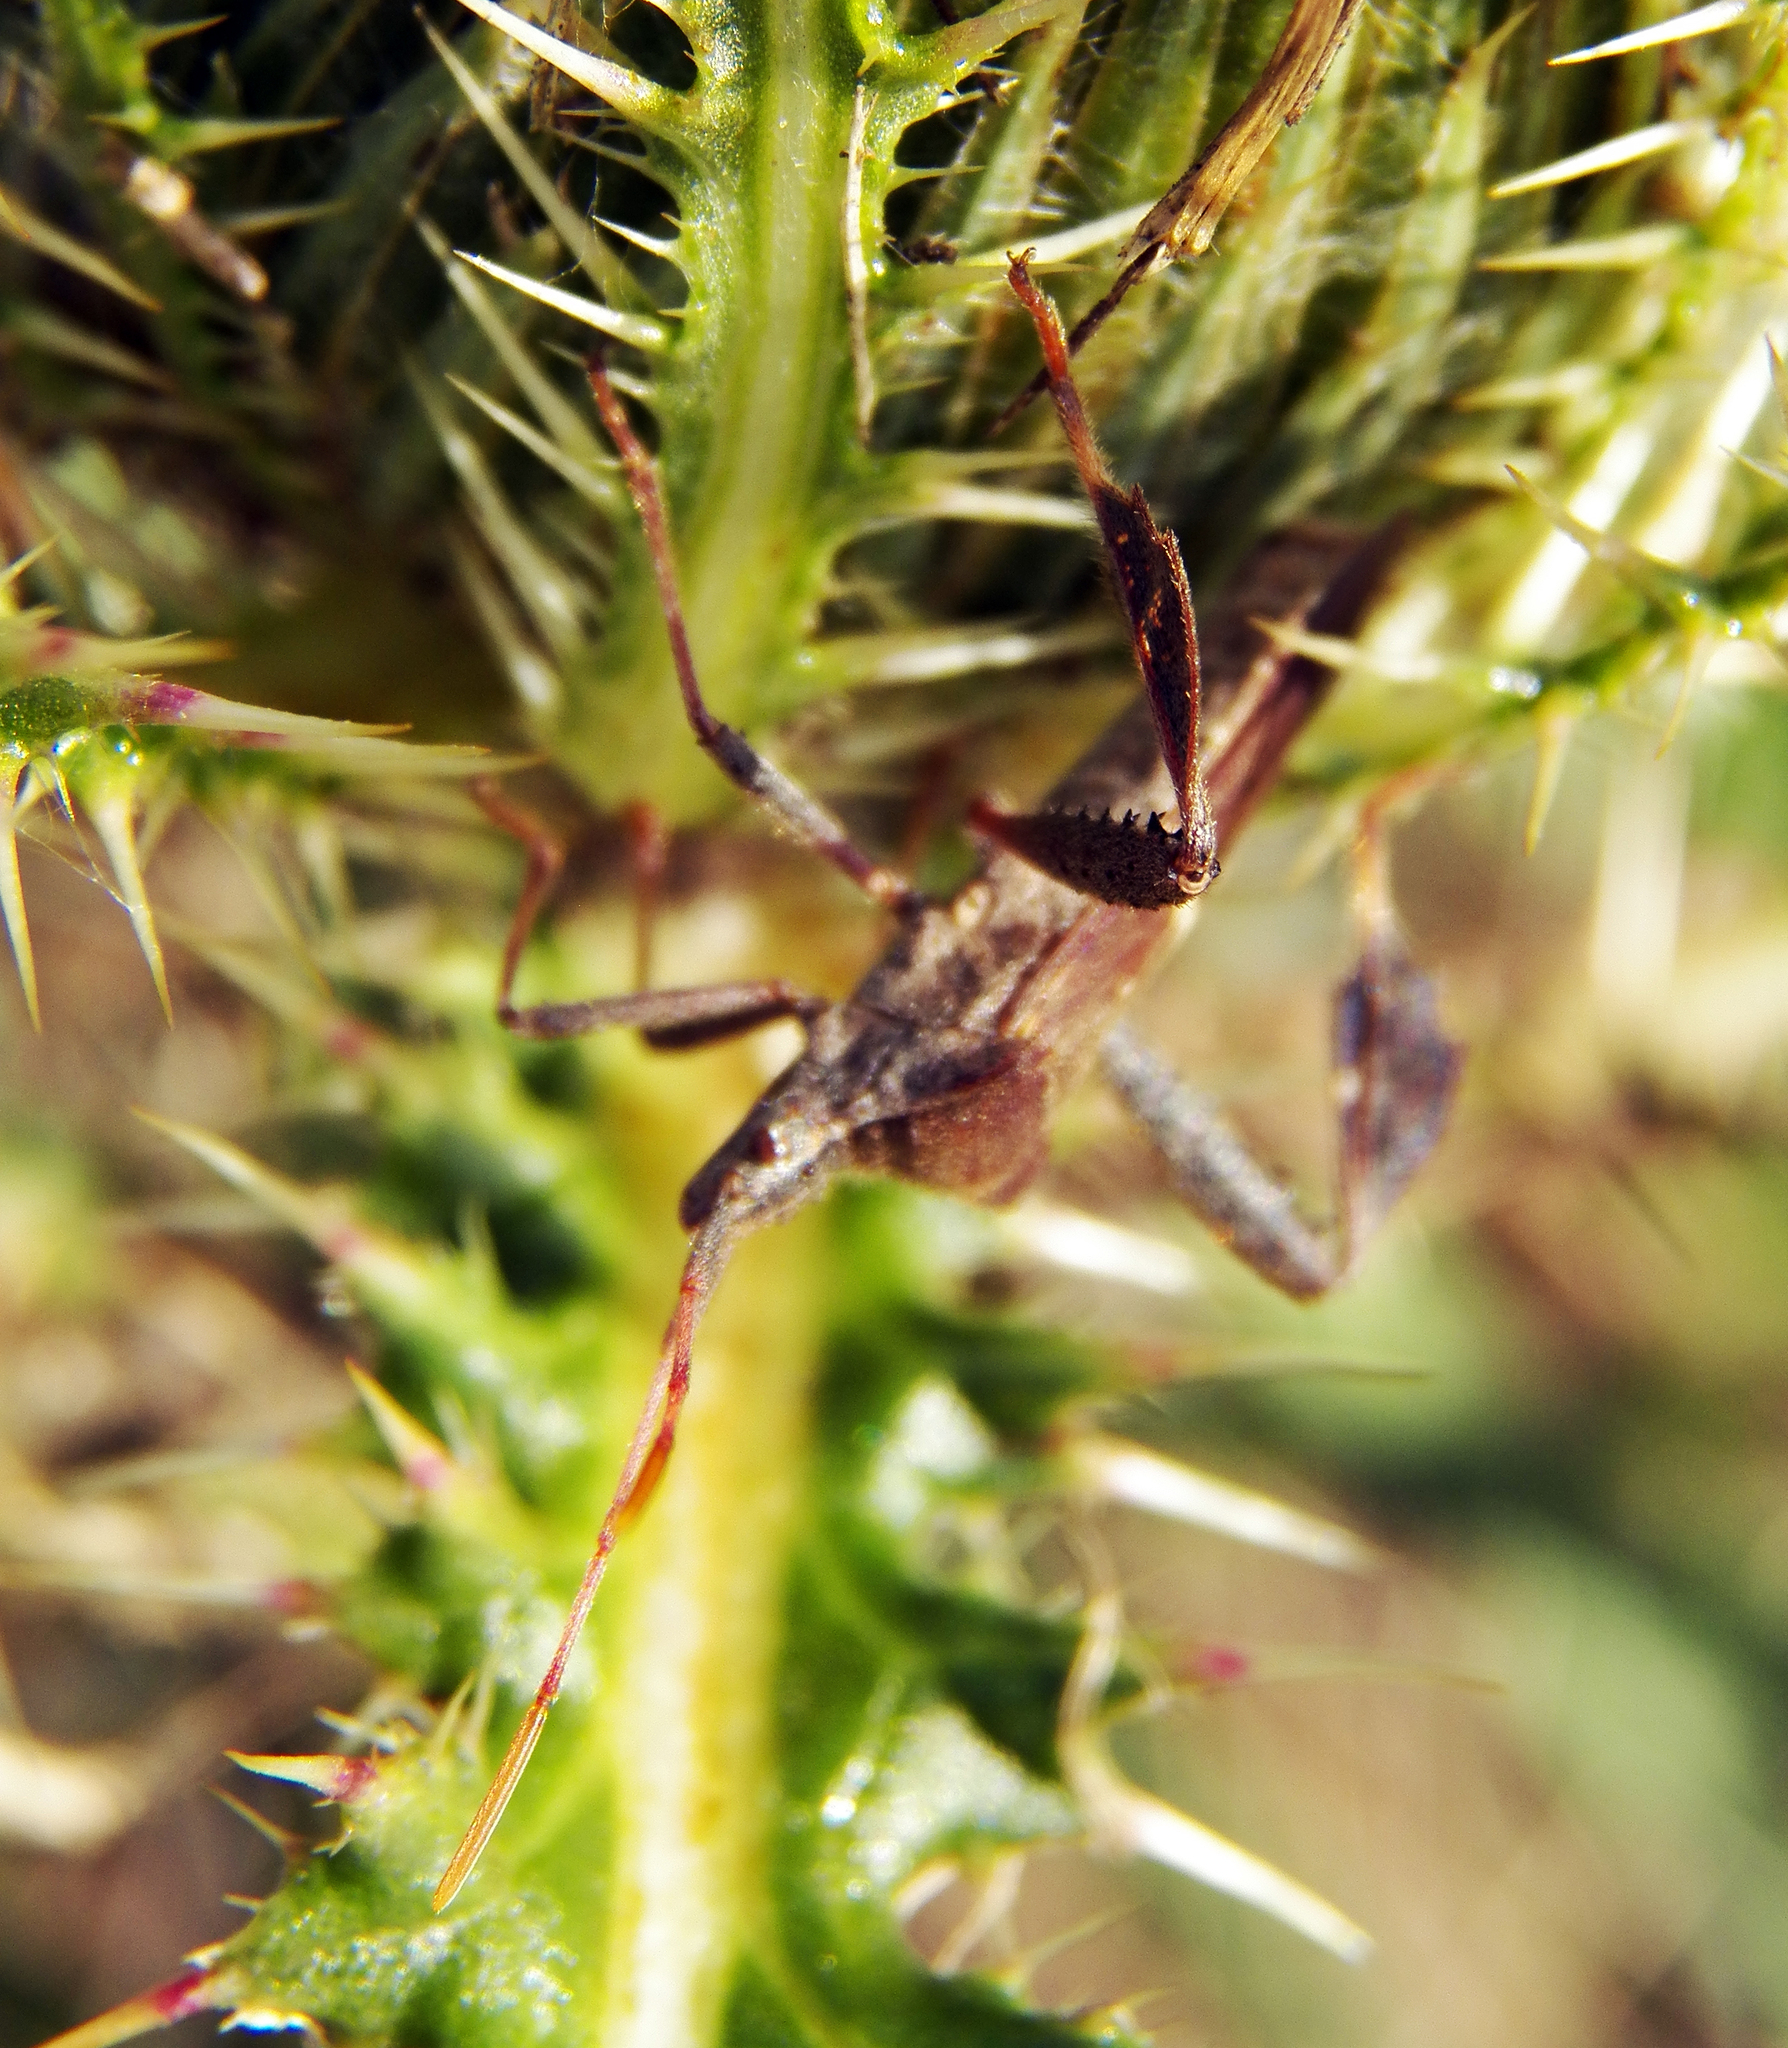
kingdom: Animalia
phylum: Arthropoda
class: Insecta
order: Hemiptera
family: Coreidae
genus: Leptoglossus
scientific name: Leptoglossus phyllopus
